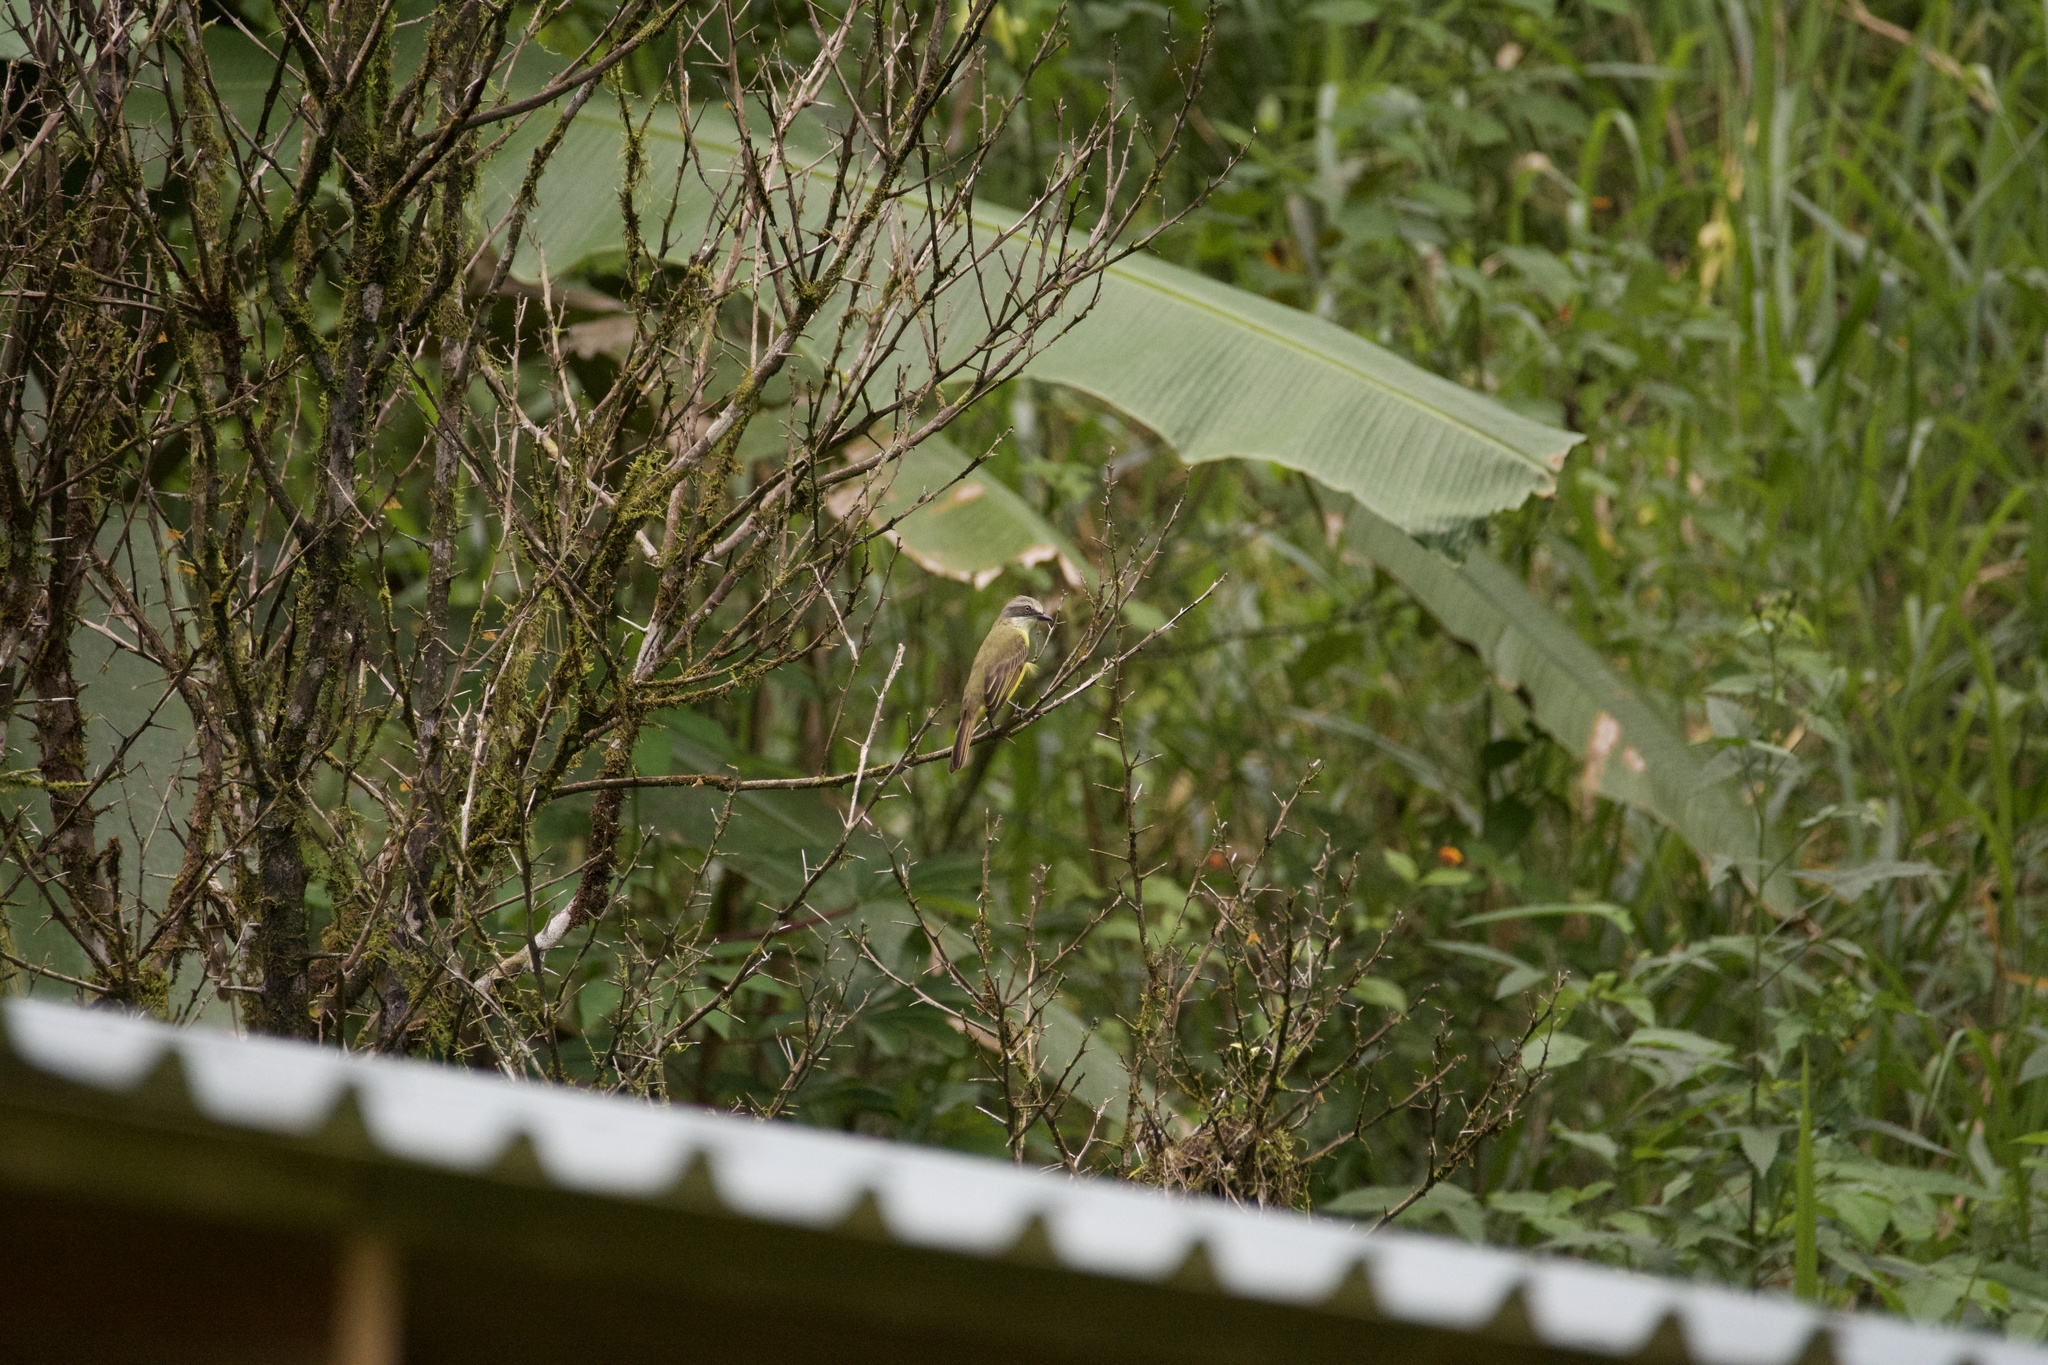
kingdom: Animalia
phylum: Chordata
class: Aves
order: Passeriformes
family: Tyrannidae
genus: Myiozetetes
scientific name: Myiozetetes granadensis
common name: Gray-capped flycatcher
